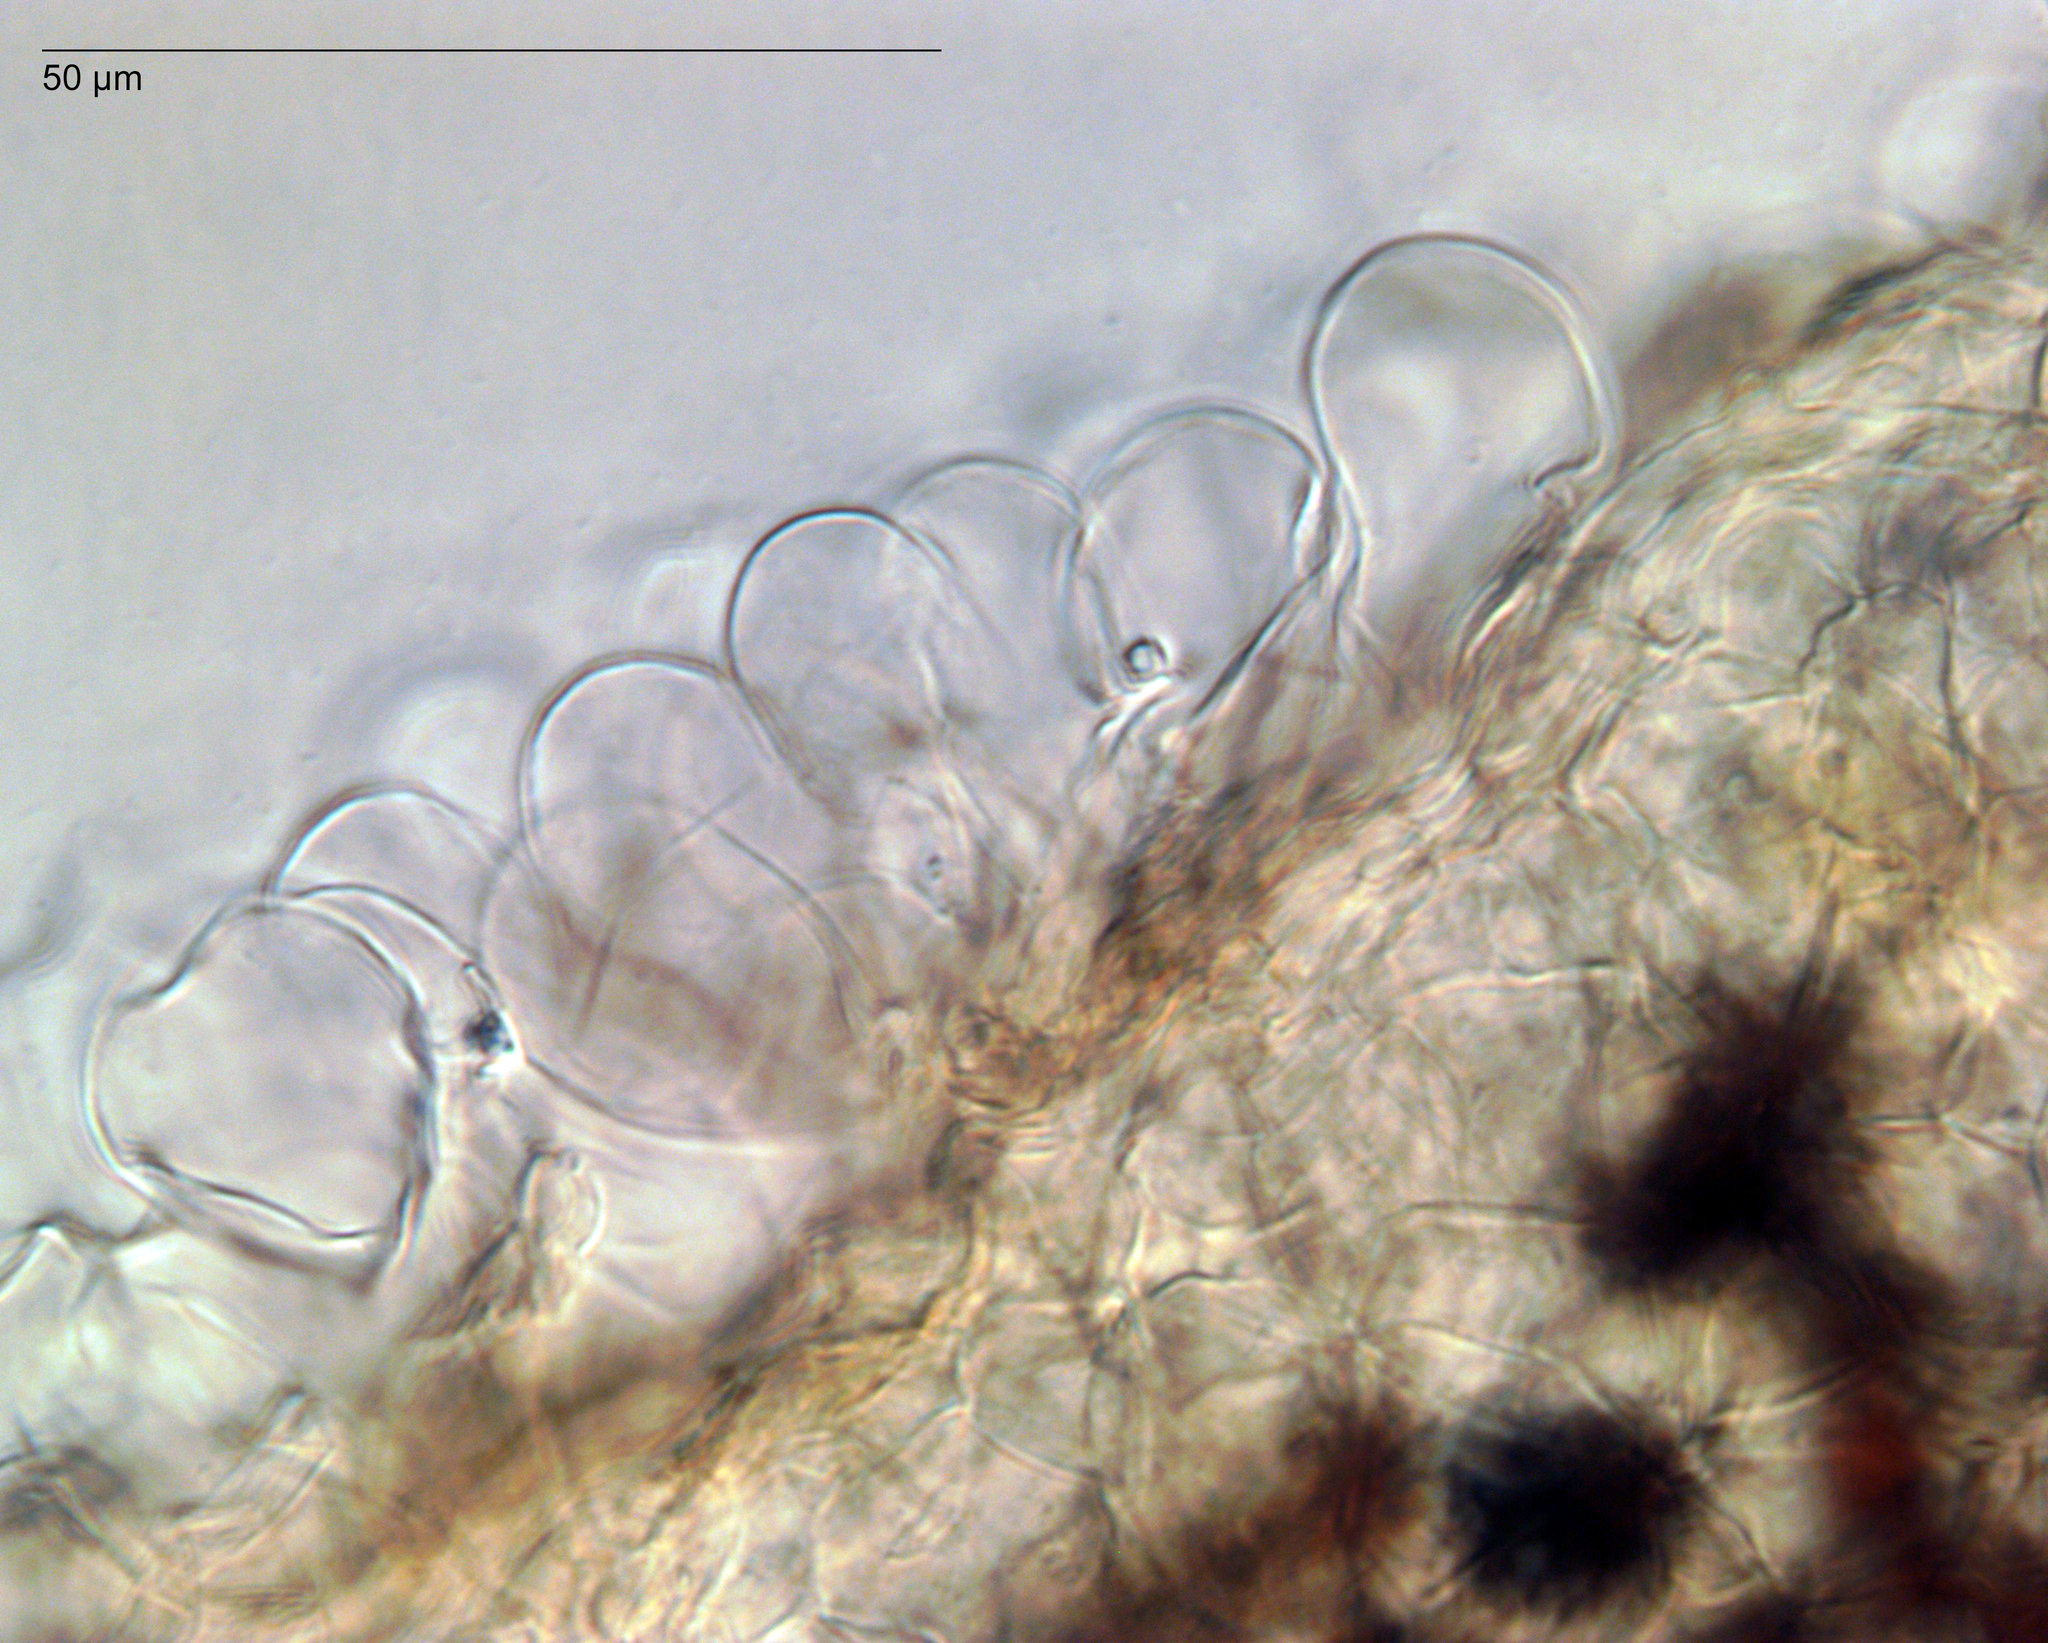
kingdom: Fungi
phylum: Basidiomycota
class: Agaricomycetes
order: Agaricales
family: Psathyrellaceae
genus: Parasola
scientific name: Parasola lactea
